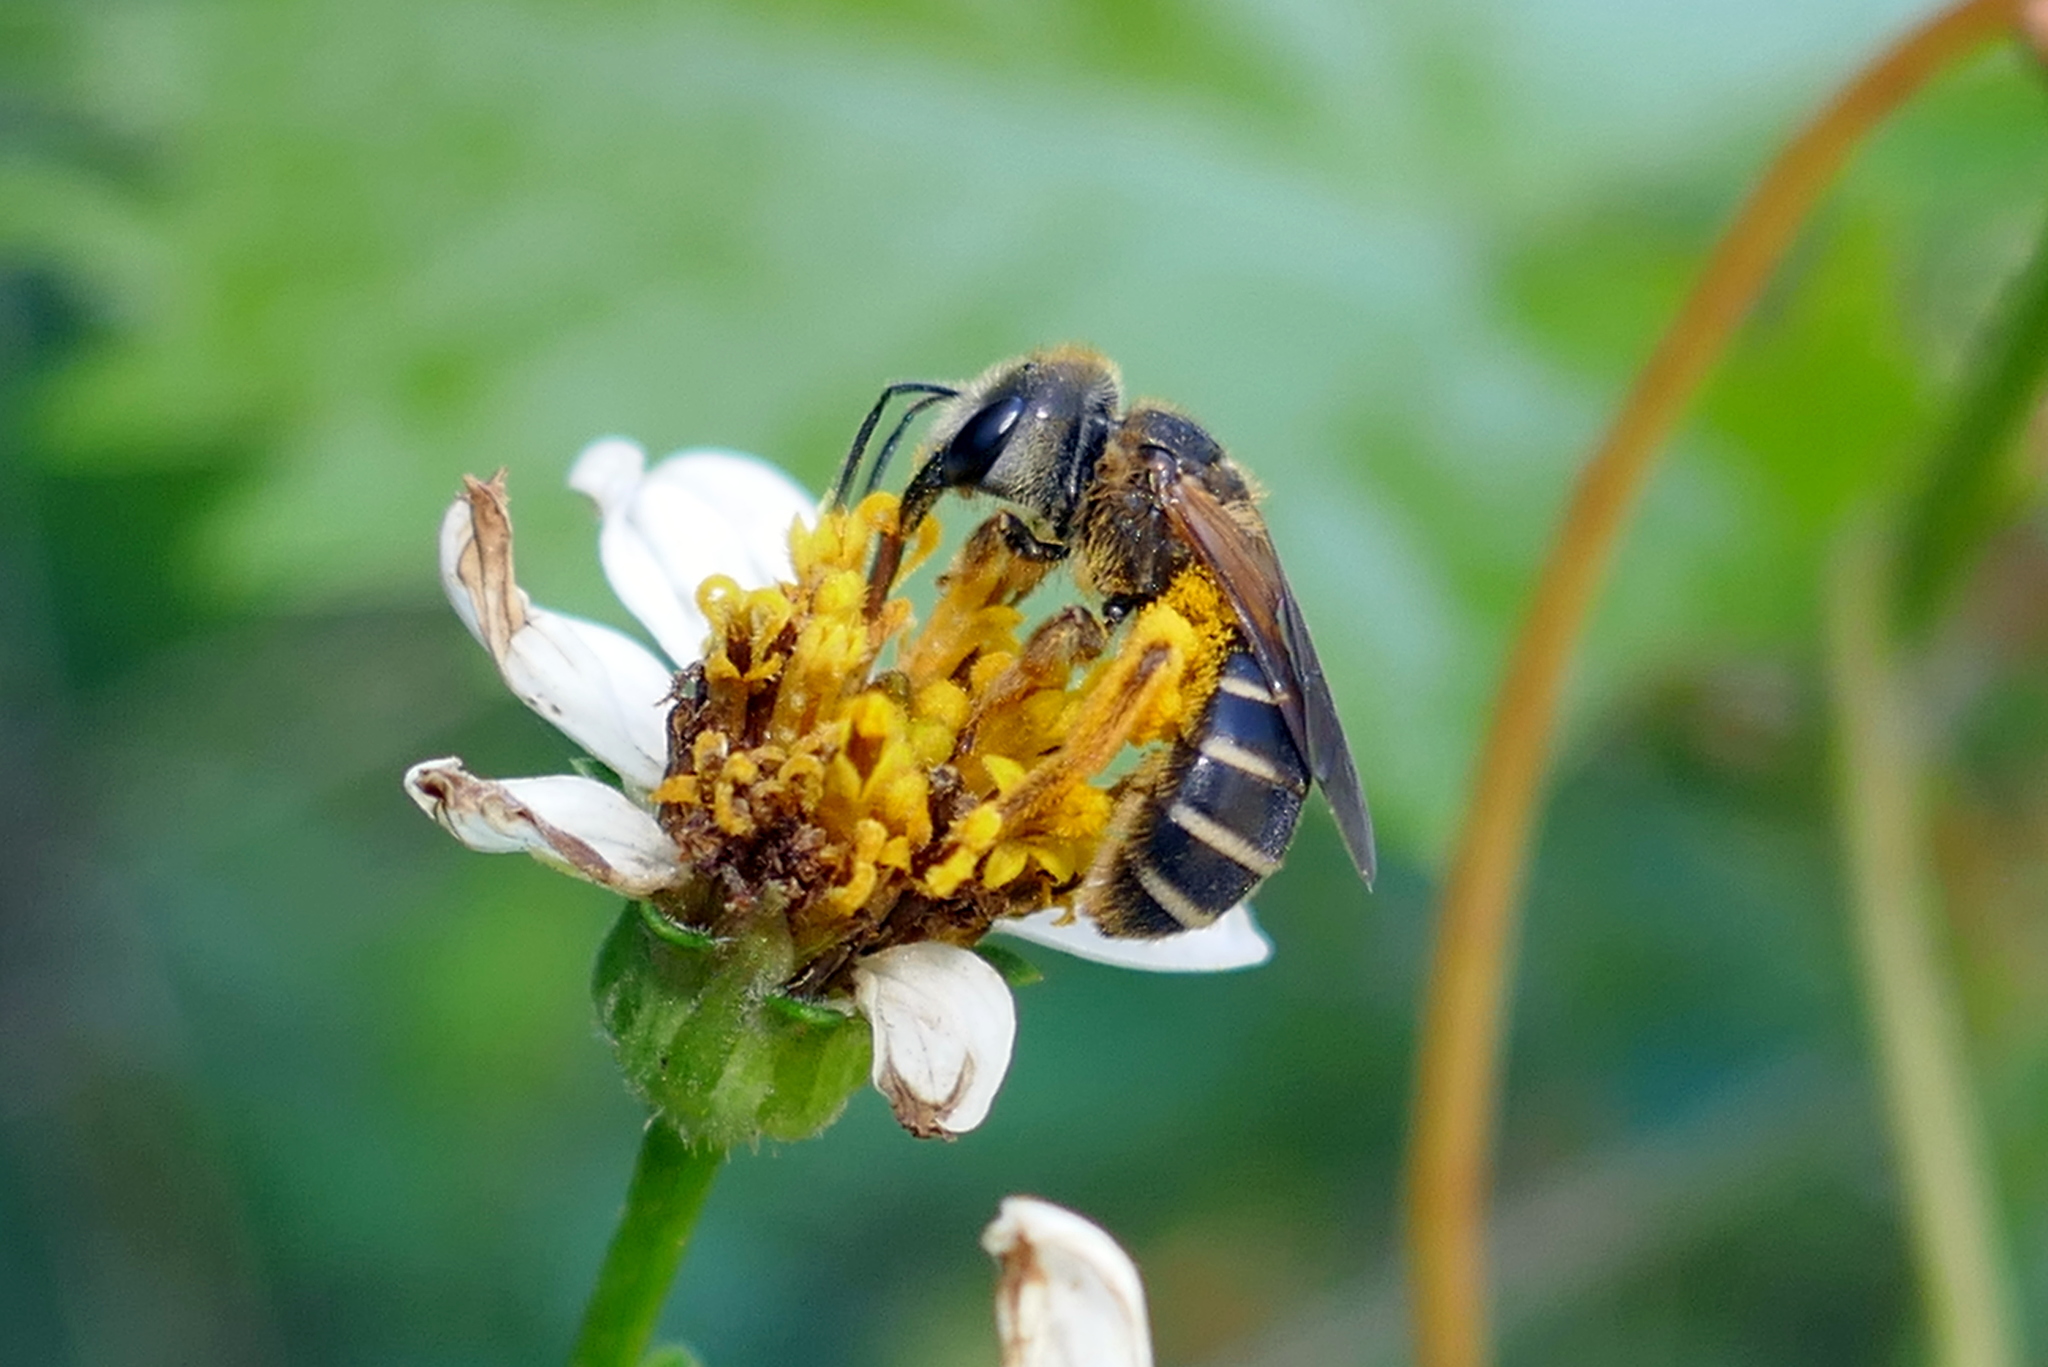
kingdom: Animalia
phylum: Arthropoda
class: Insecta
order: Hymenoptera
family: Halictidae
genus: Halictus
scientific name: Halictus poeyi
